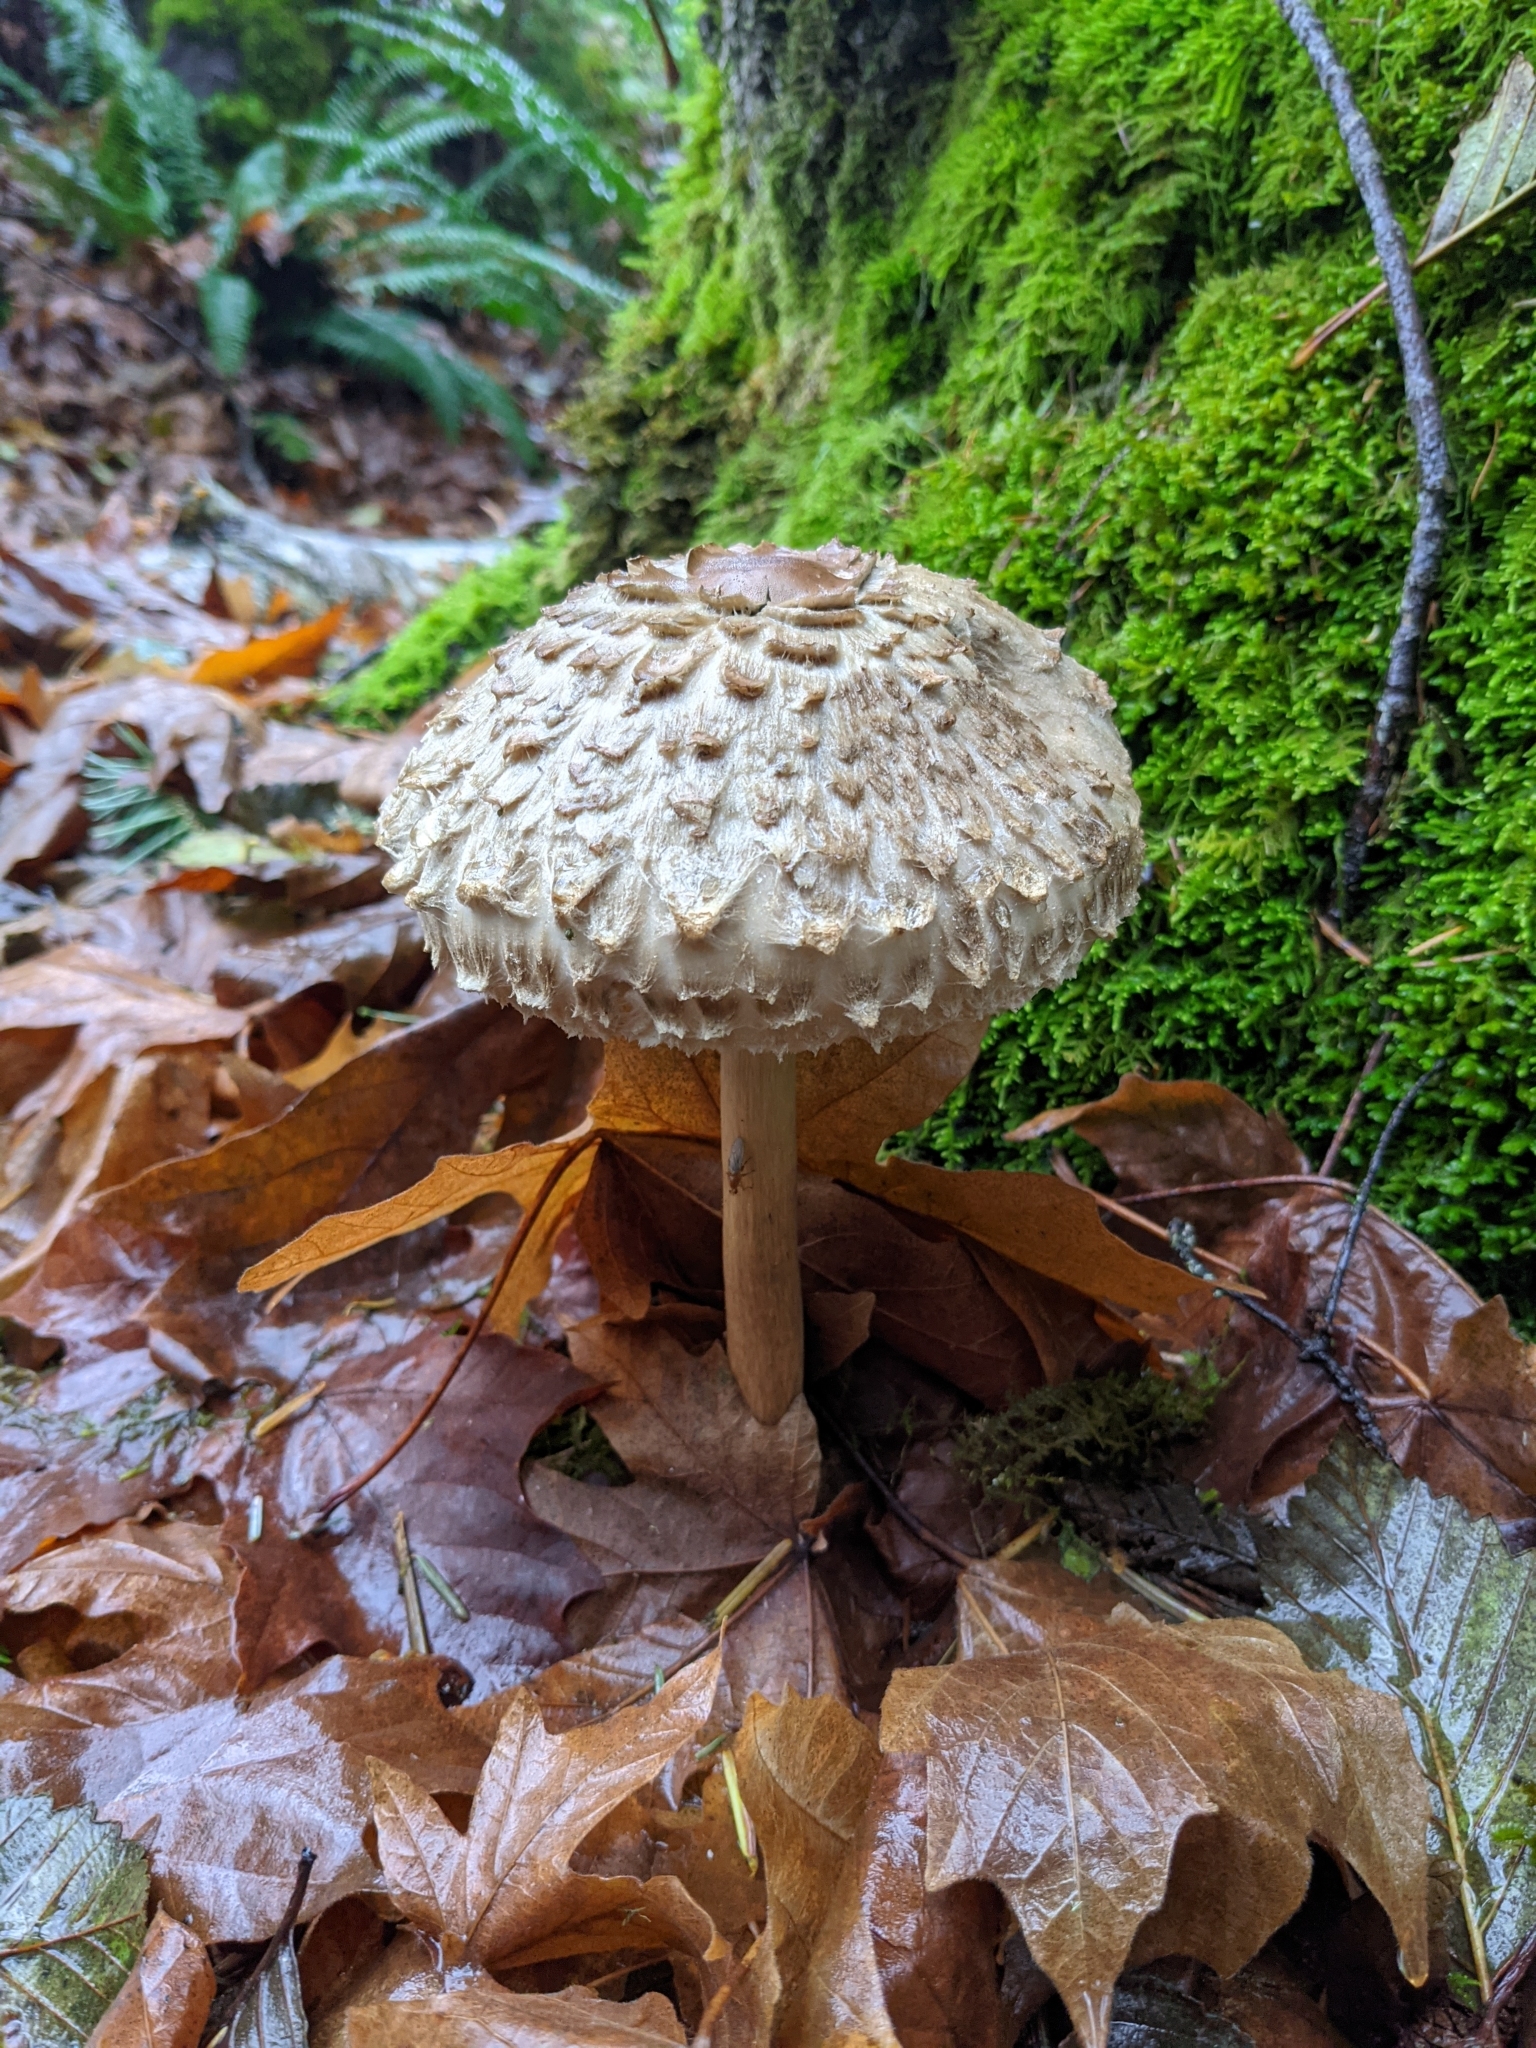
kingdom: Fungi
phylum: Basidiomycota
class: Agaricomycetes
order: Agaricales
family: Agaricaceae
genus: Chlorophyllum
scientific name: Chlorophyllum olivieri
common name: Conifer parasol
